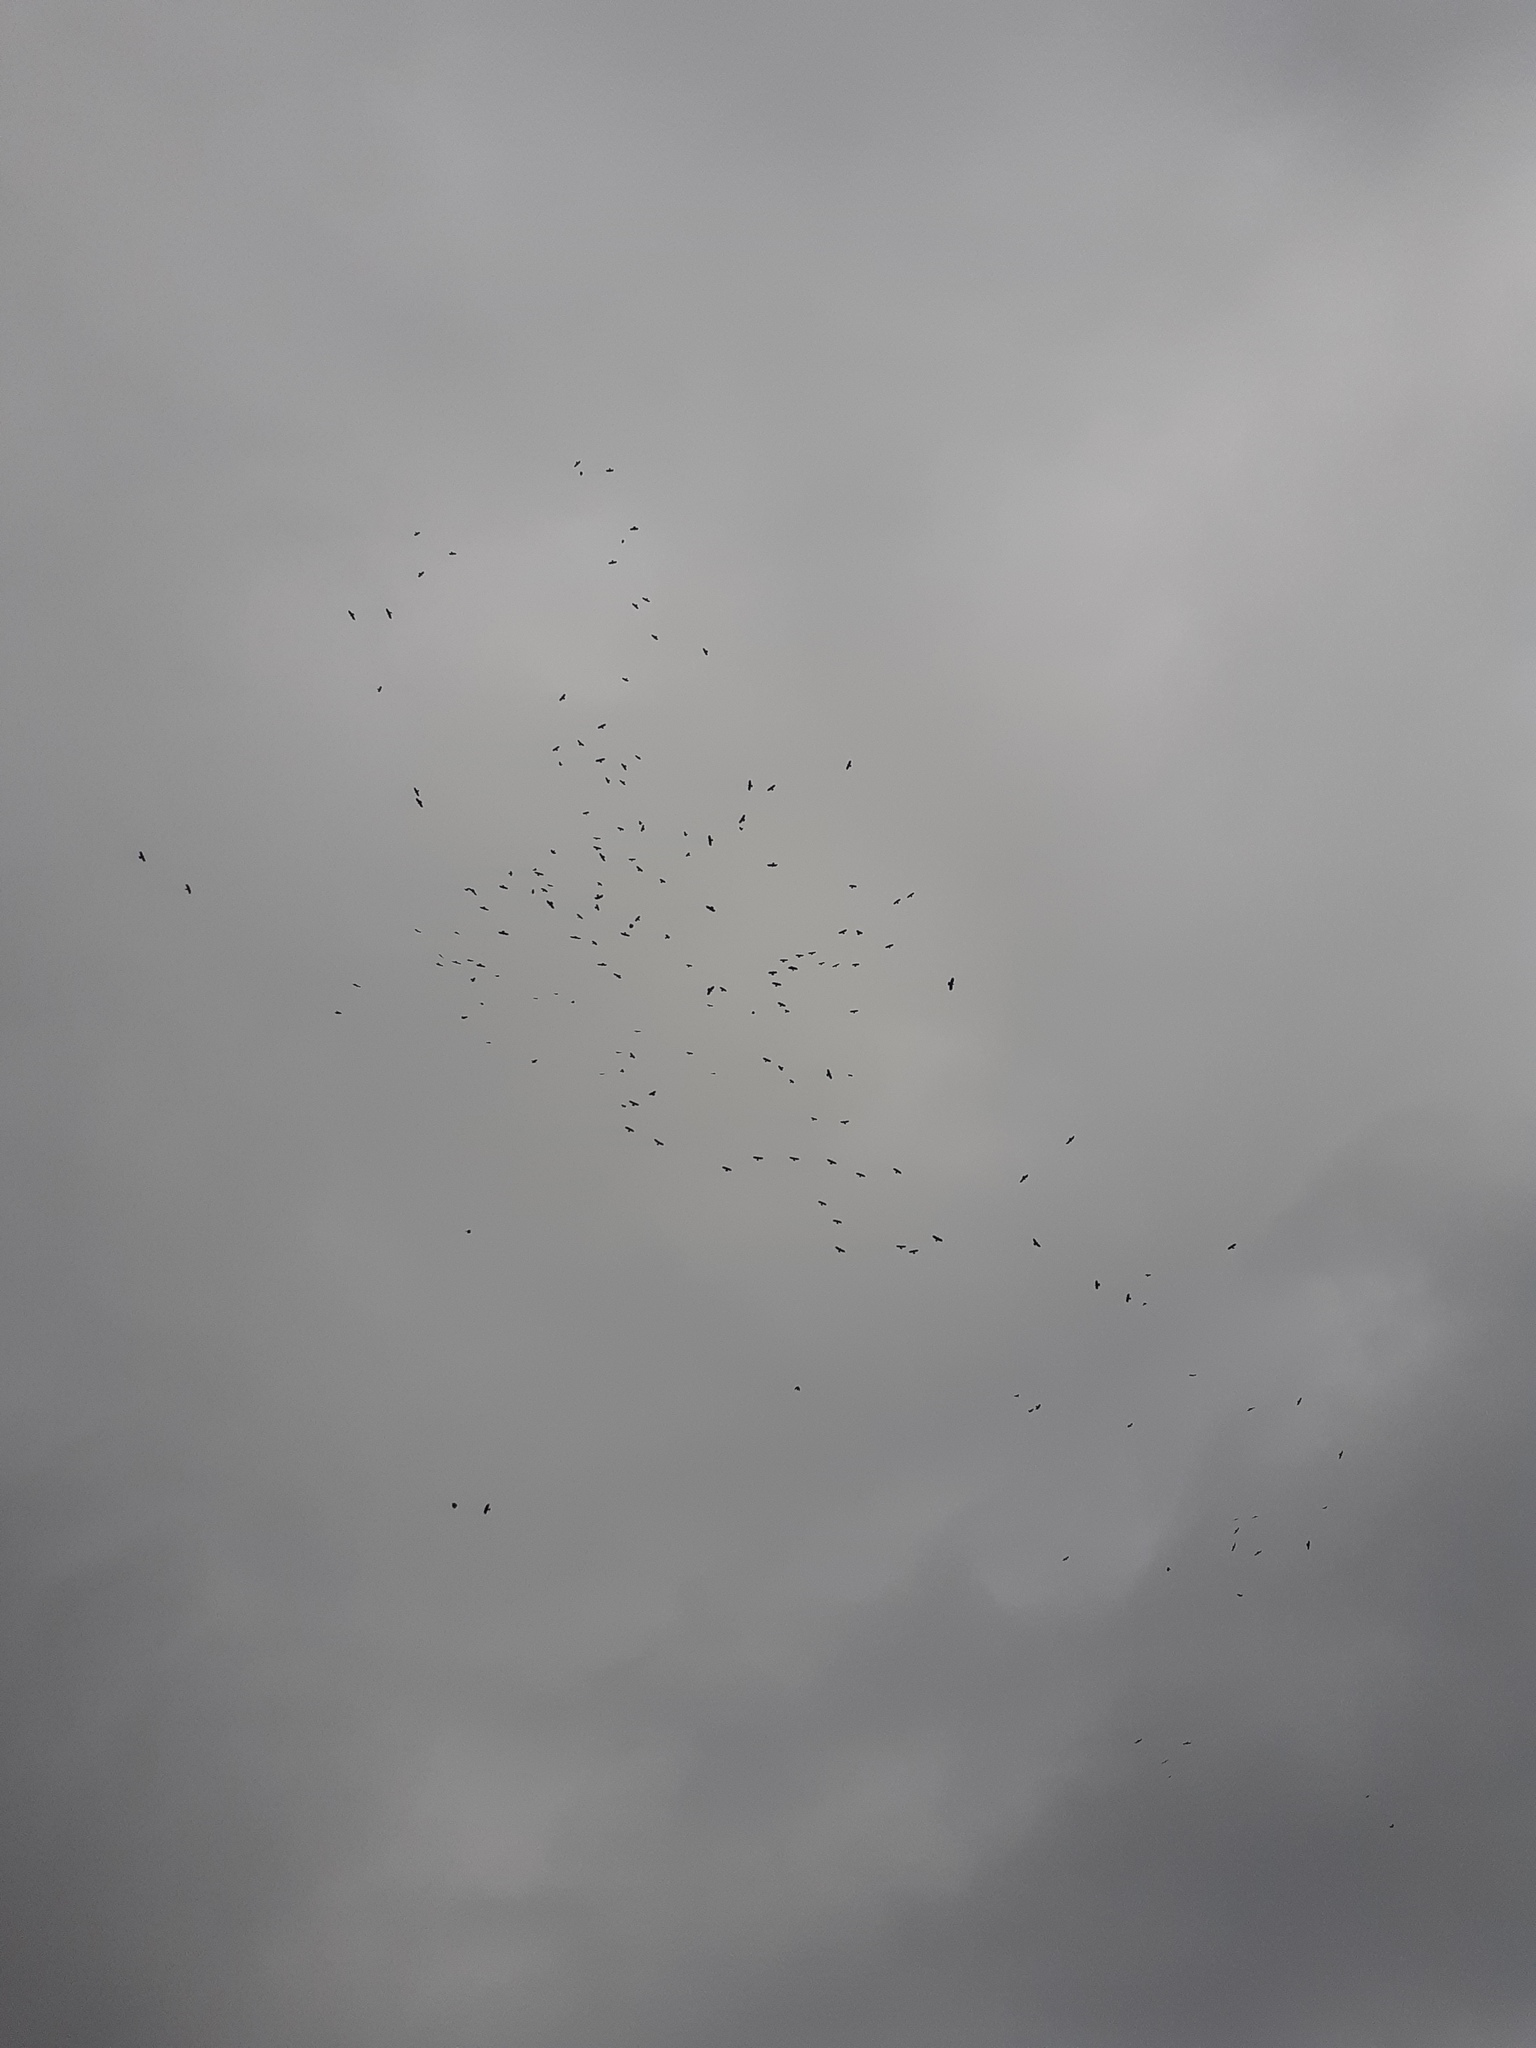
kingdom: Animalia
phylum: Chordata
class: Aves
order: Passeriformes
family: Corvidae
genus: Pyrrhocorax
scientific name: Pyrrhocorax pyrrhocorax
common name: Red-billed chough
